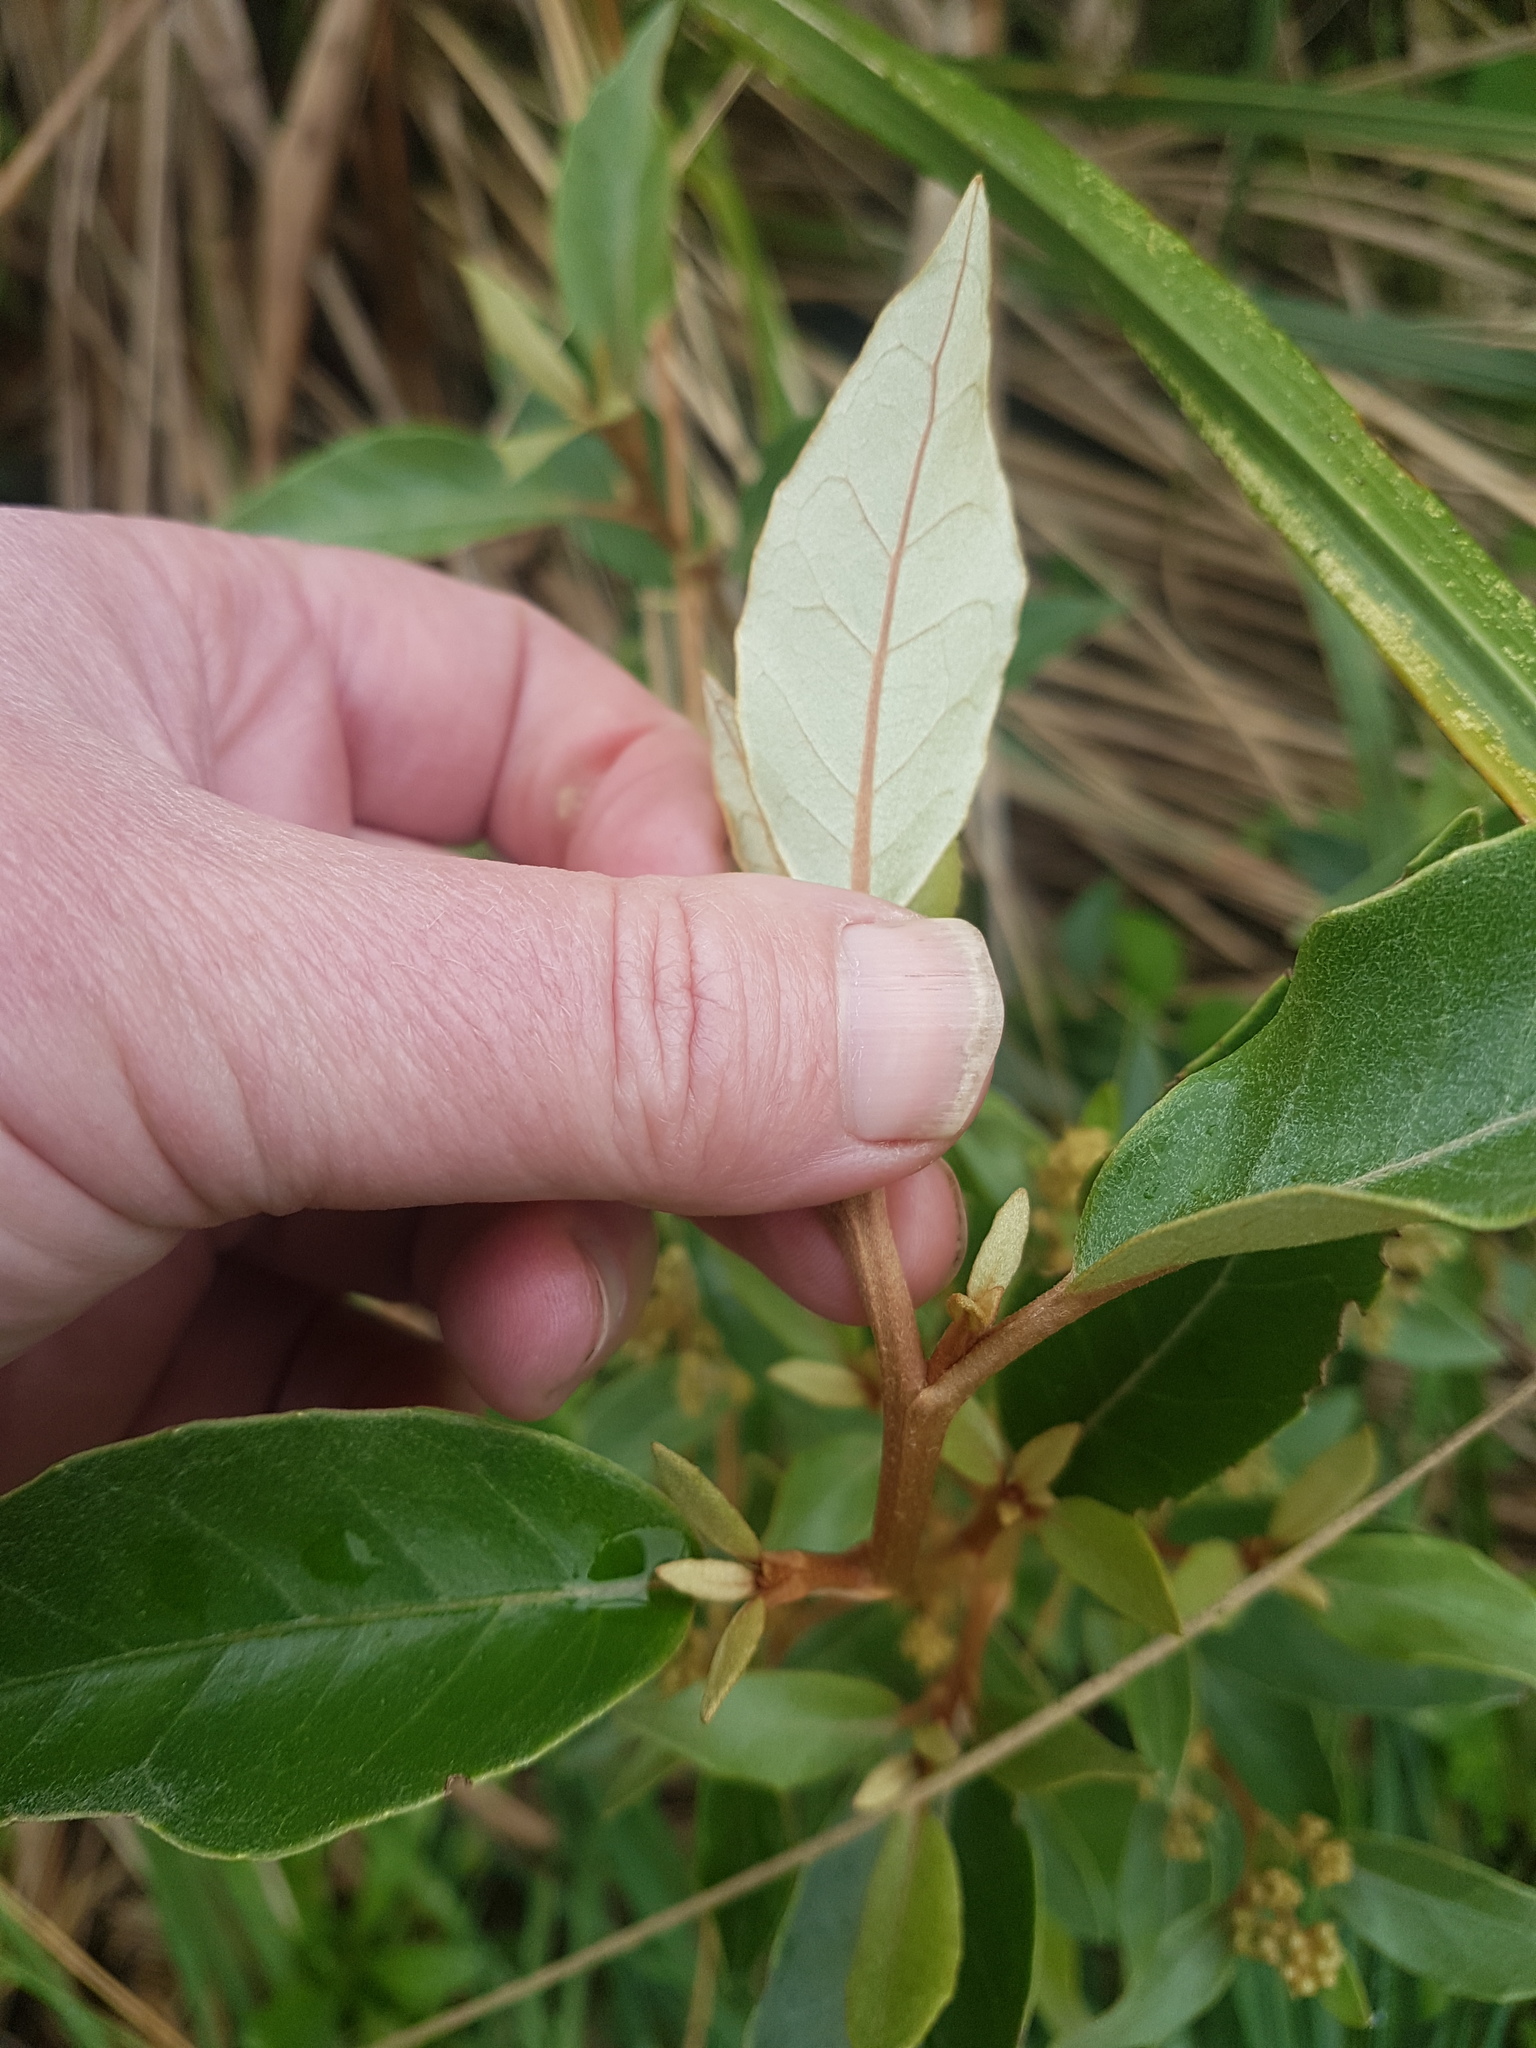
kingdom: Plantae
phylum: Tracheophyta
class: Magnoliopsida
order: Asterales
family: Asteraceae
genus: Olearia
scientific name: Olearia arborescens
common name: Glossy tree daisy
